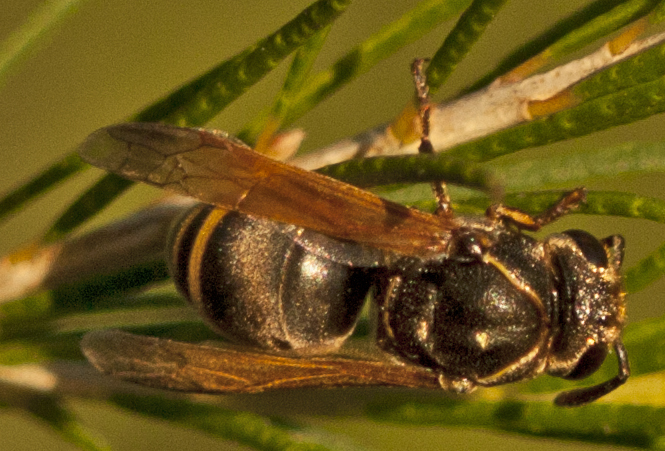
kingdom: Animalia
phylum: Arthropoda
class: Insecta
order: Hymenoptera
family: Eumenidae
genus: Pachodynerus
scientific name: Pachodynerus nasidens
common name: Key hole wasp
